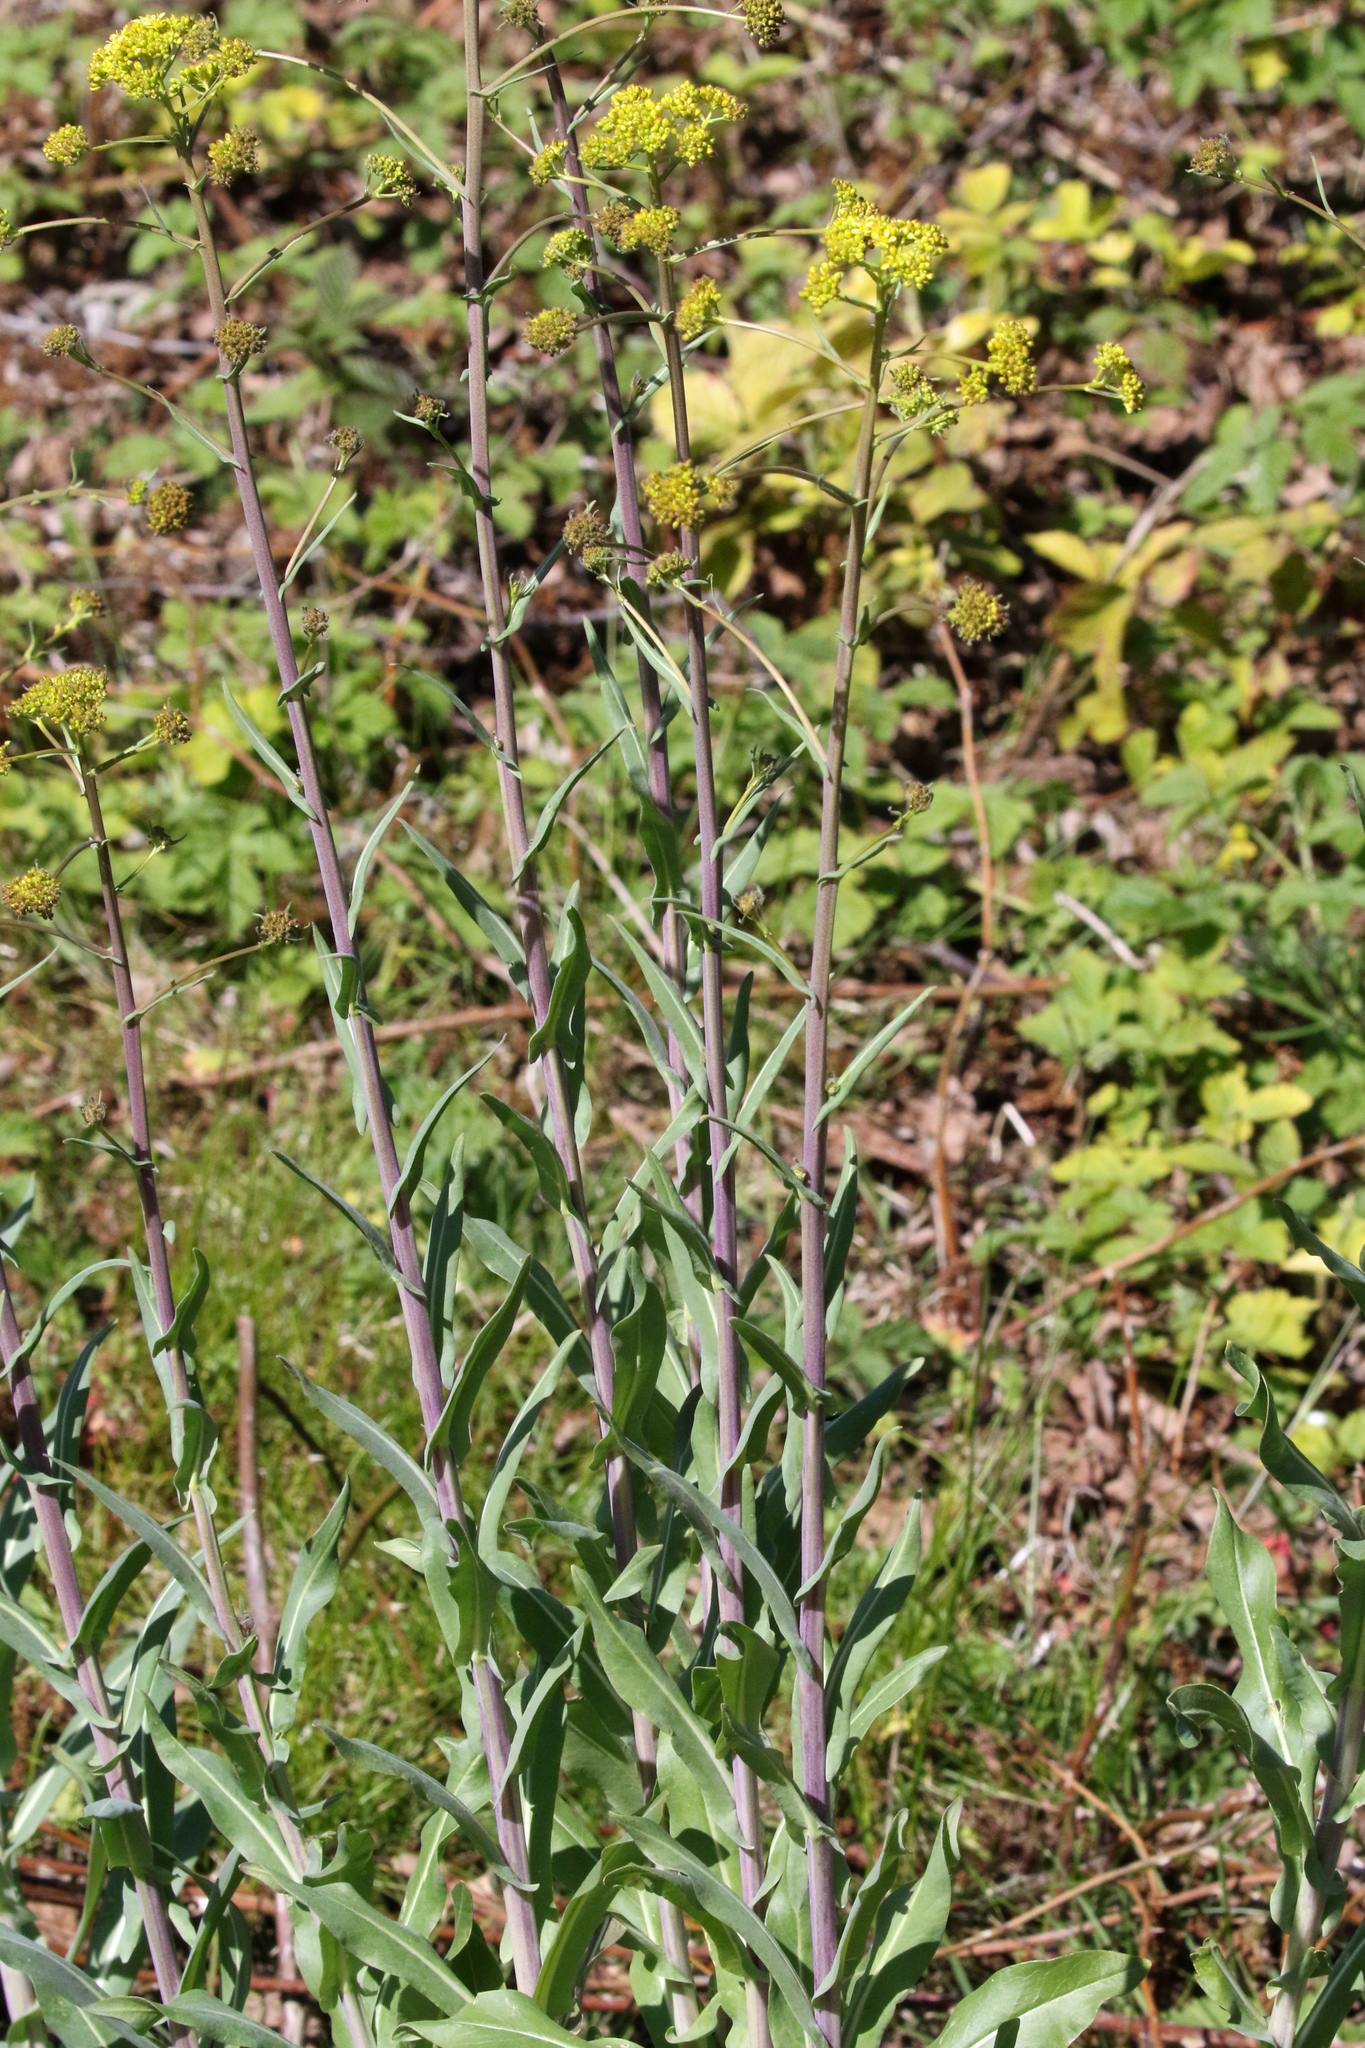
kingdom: Plantae
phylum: Tracheophyta
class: Magnoliopsida
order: Brassicales
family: Brassicaceae
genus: Isatis
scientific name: Isatis tinctoria
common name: Woad
